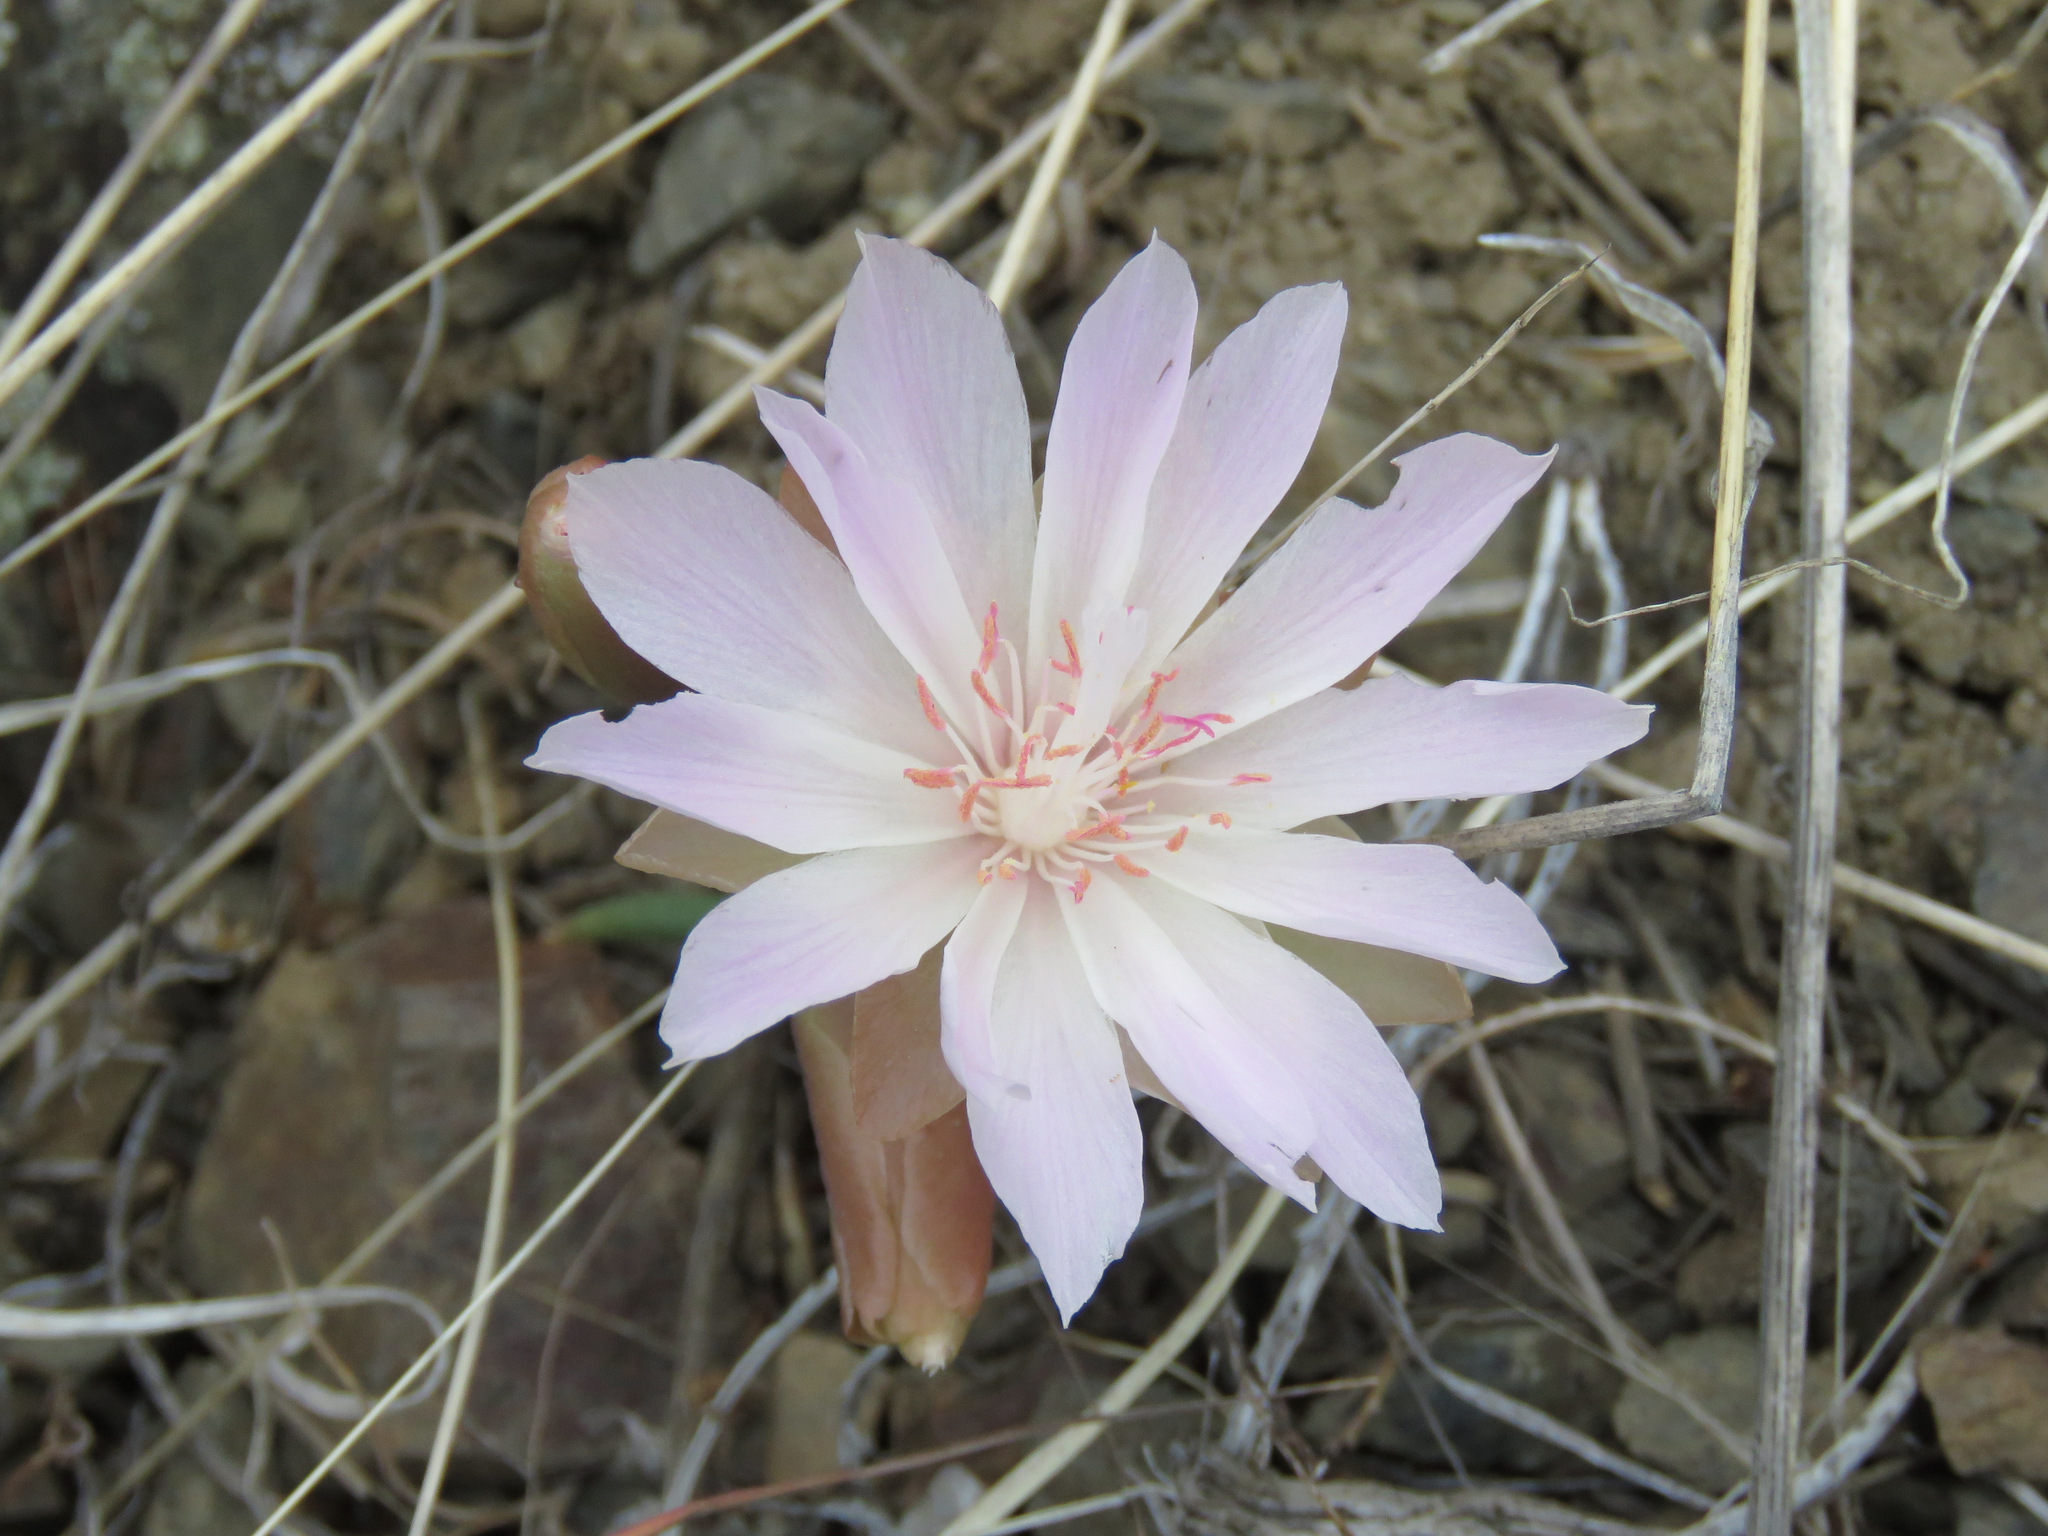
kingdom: Plantae
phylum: Tracheophyta
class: Magnoliopsida
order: Caryophyllales
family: Montiaceae
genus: Lewisia
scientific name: Lewisia rediviva
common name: Bitter-root
